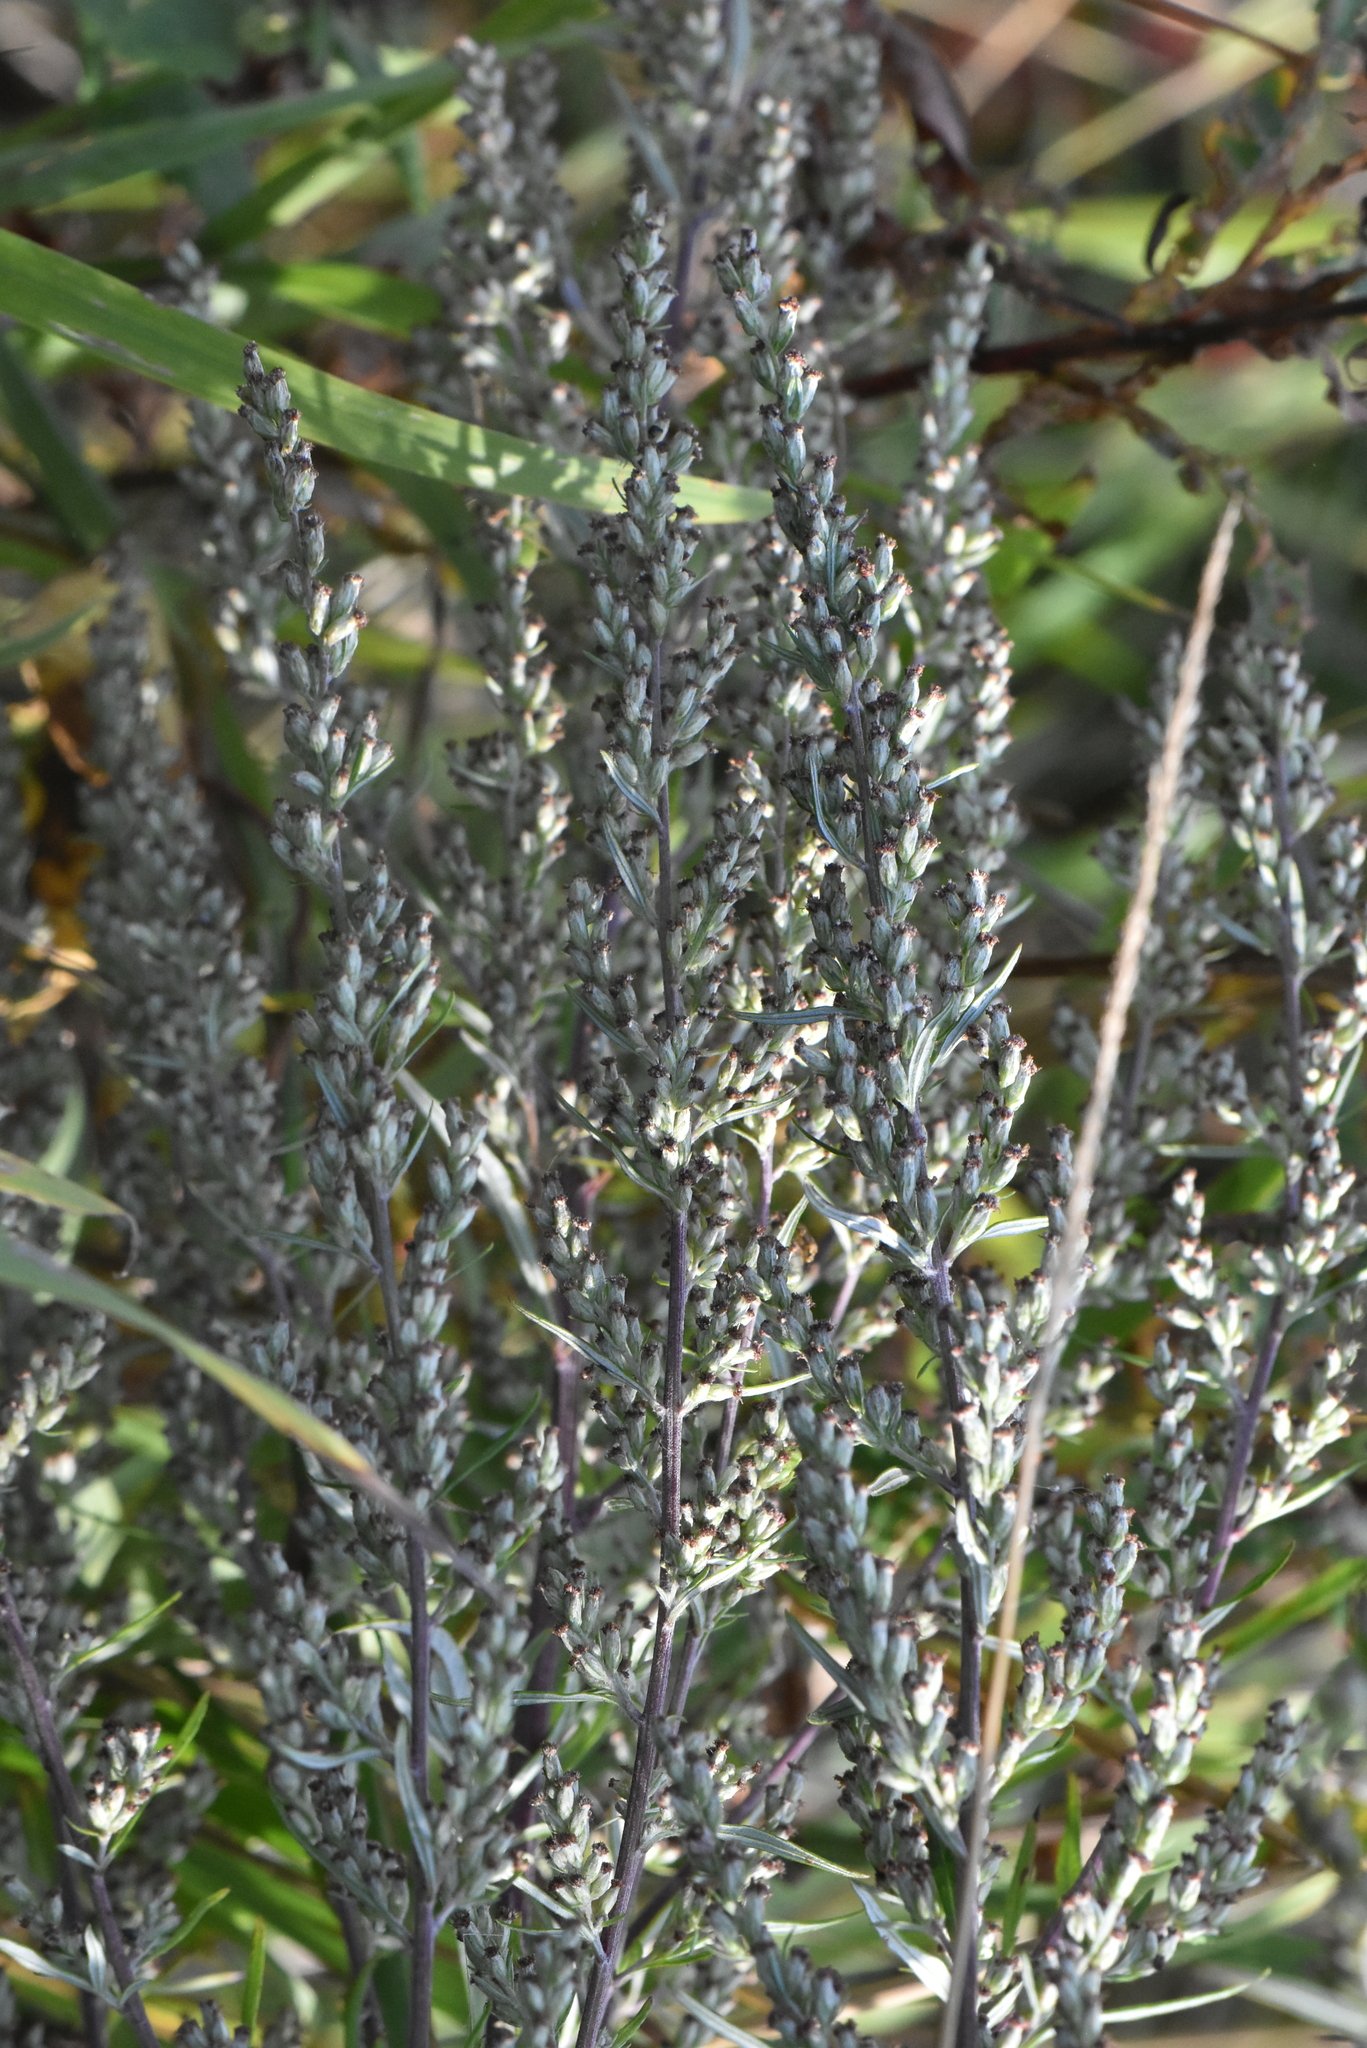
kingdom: Plantae
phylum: Tracheophyta
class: Magnoliopsida
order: Asterales
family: Asteraceae
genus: Artemisia
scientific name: Artemisia vulgaris
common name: Mugwort
